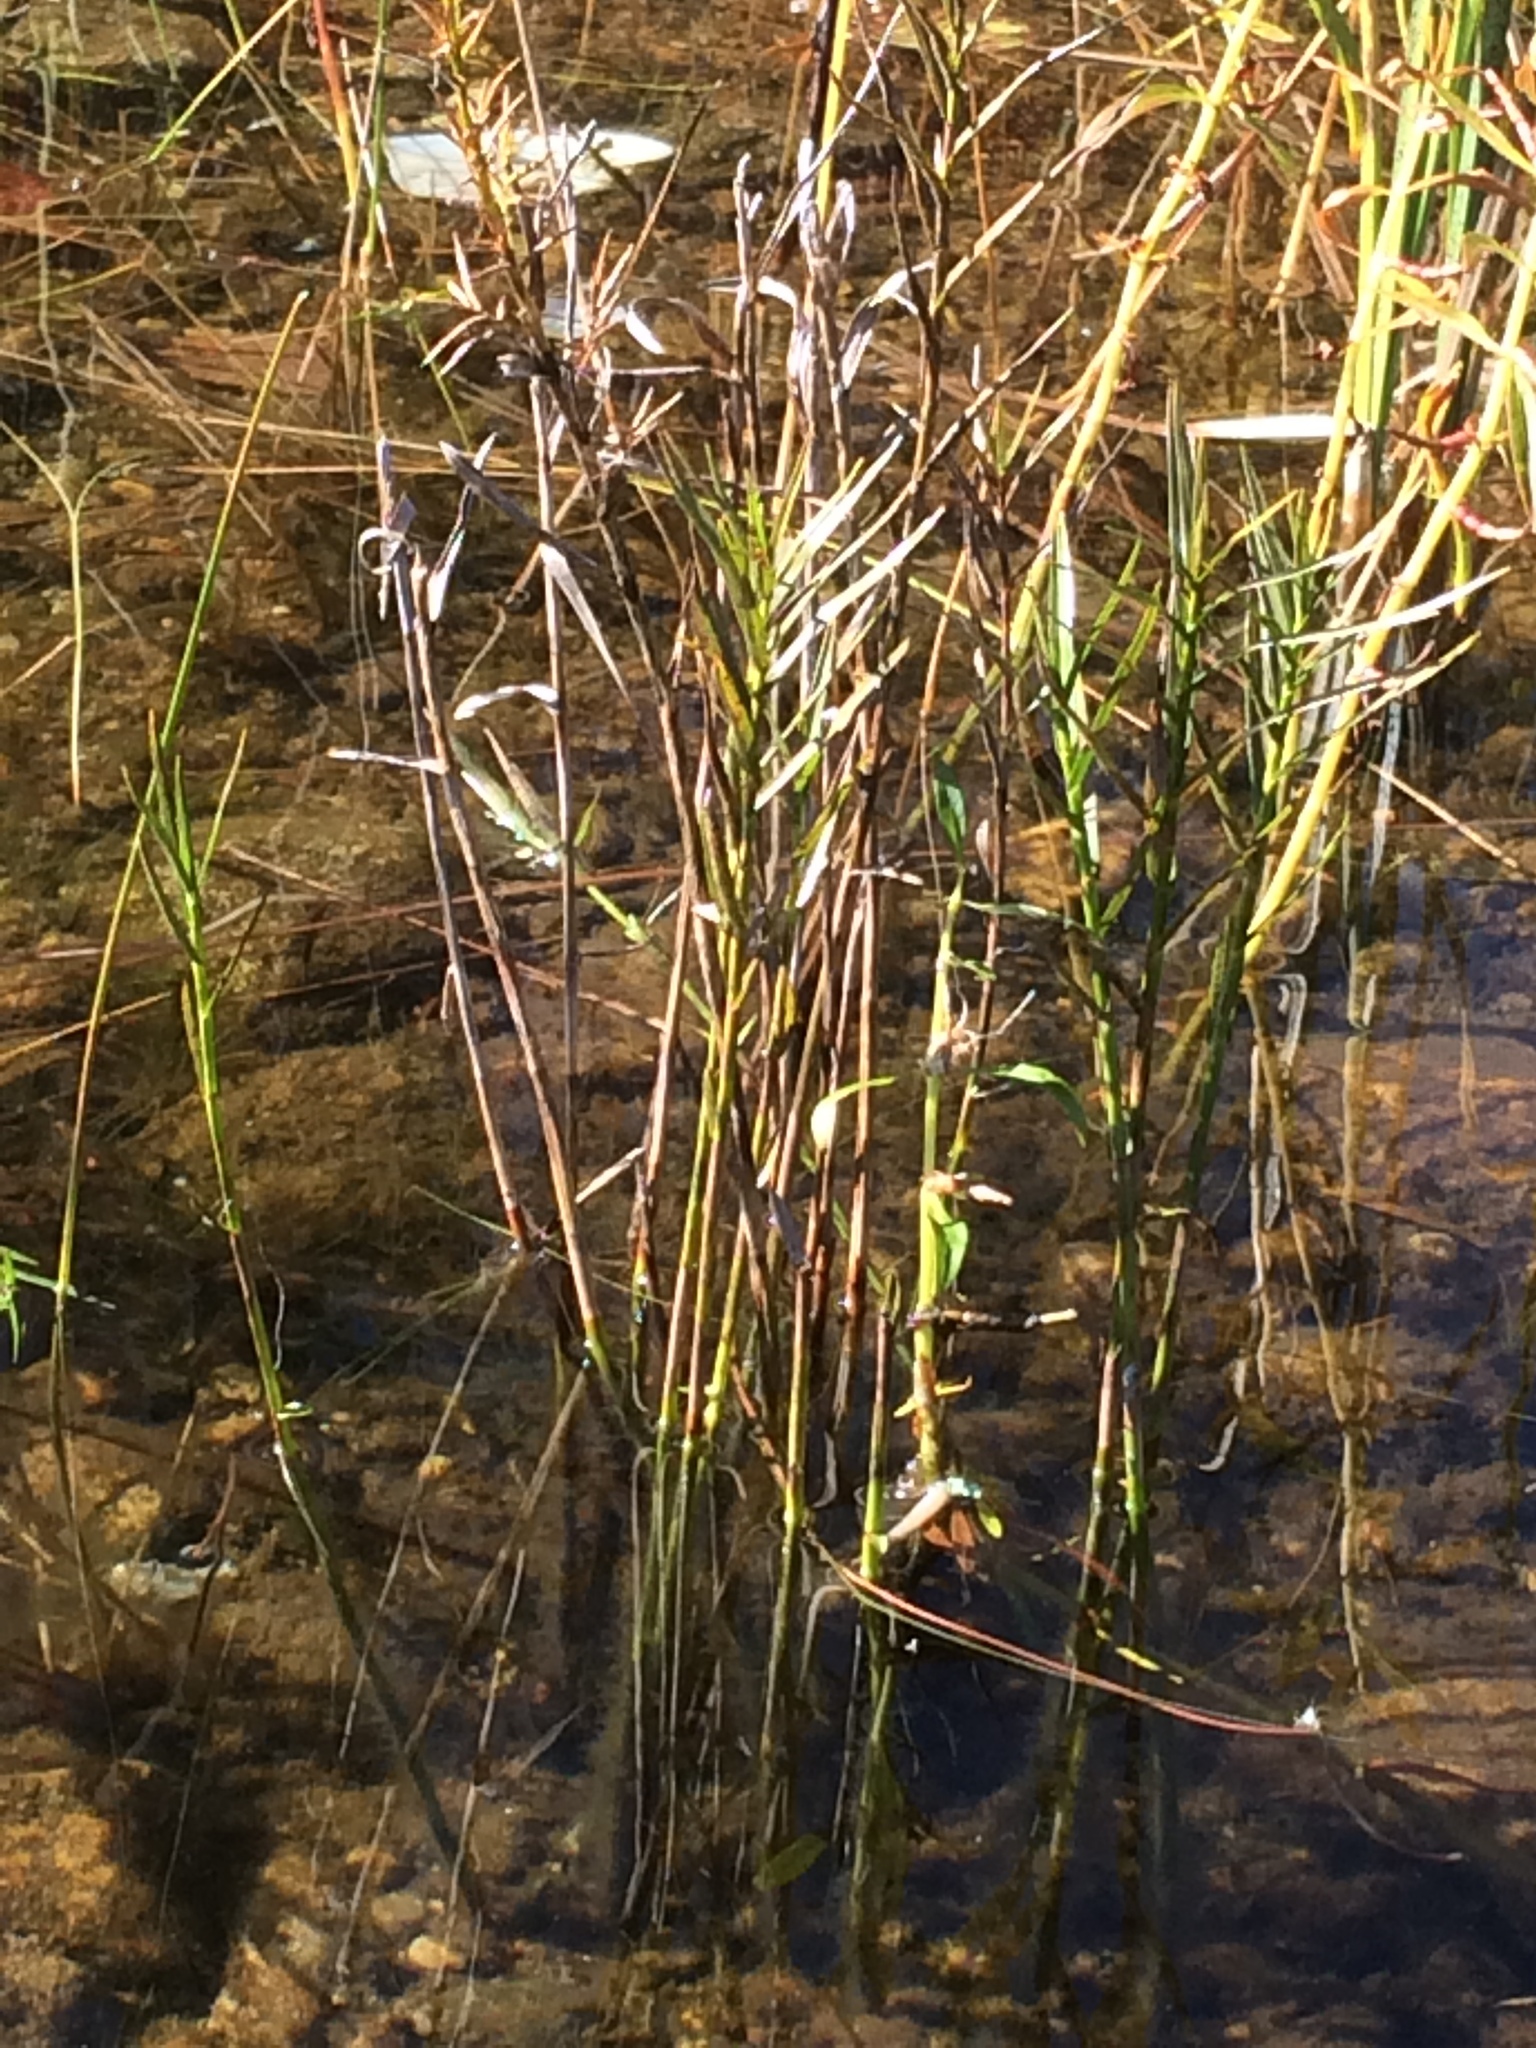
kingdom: Plantae
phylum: Tracheophyta
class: Liliopsida
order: Poales
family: Cyperaceae
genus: Dulichium
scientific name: Dulichium arundinaceum
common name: Three-way sedge
